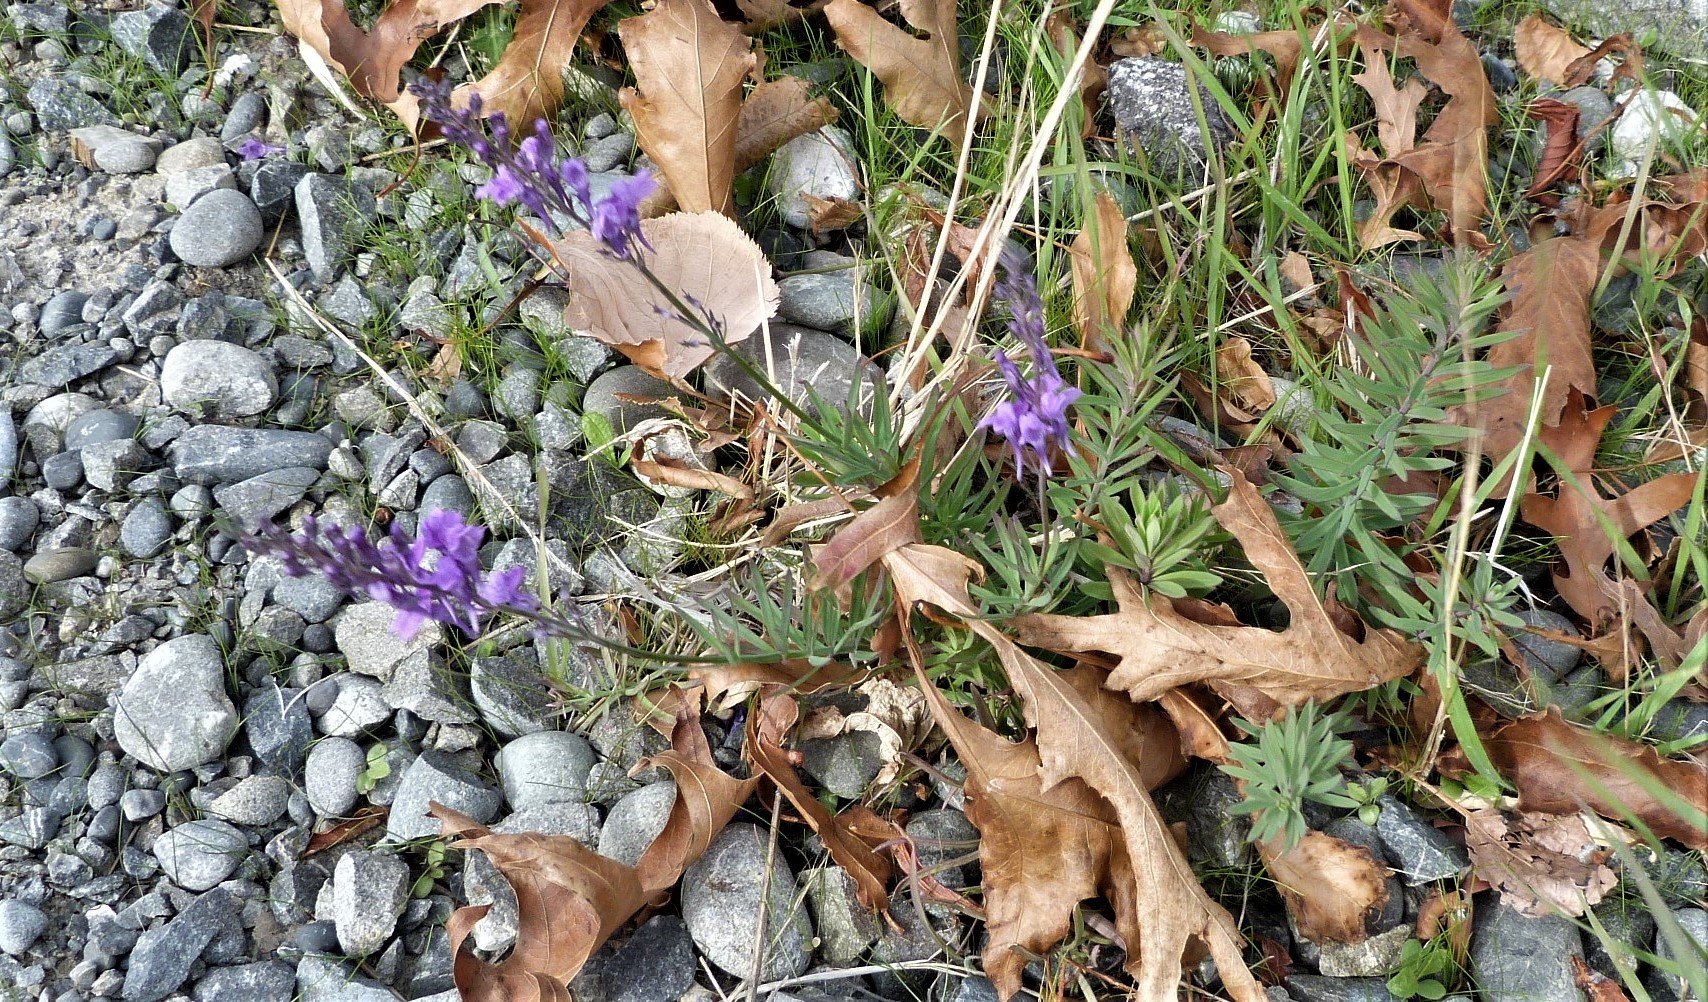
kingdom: Plantae
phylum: Tracheophyta
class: Magnoliopsida
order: Lamiales
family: Plantaginaceae
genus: Linaria
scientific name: Linaria purpurea
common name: Purple toadflax
